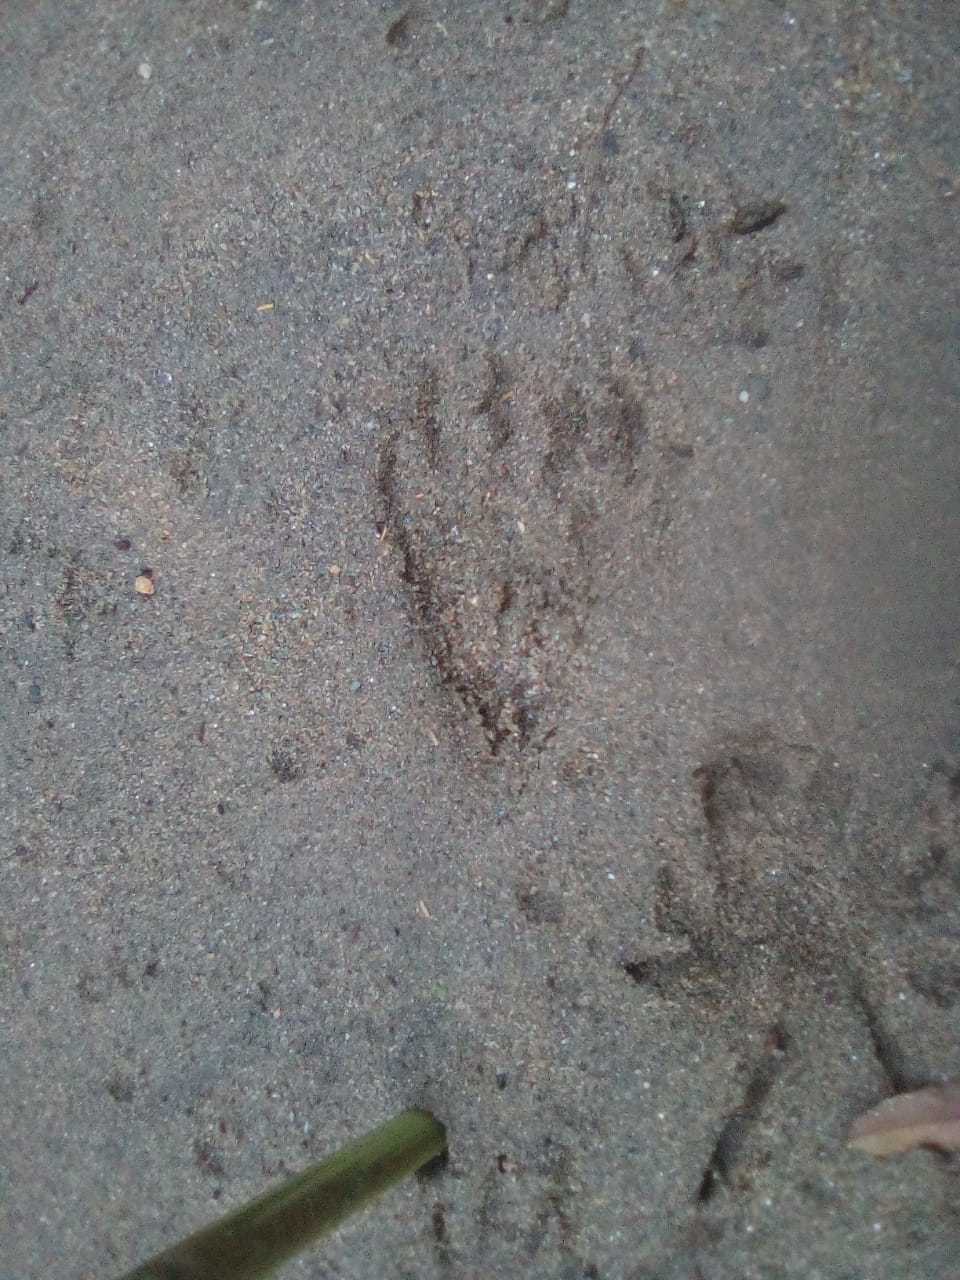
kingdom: Animalia
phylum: Chordata
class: Mammalia
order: Carnivora
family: Procyonidae
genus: Procyon
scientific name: Procyon cancrivorus
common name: Crab-eating raccoon
